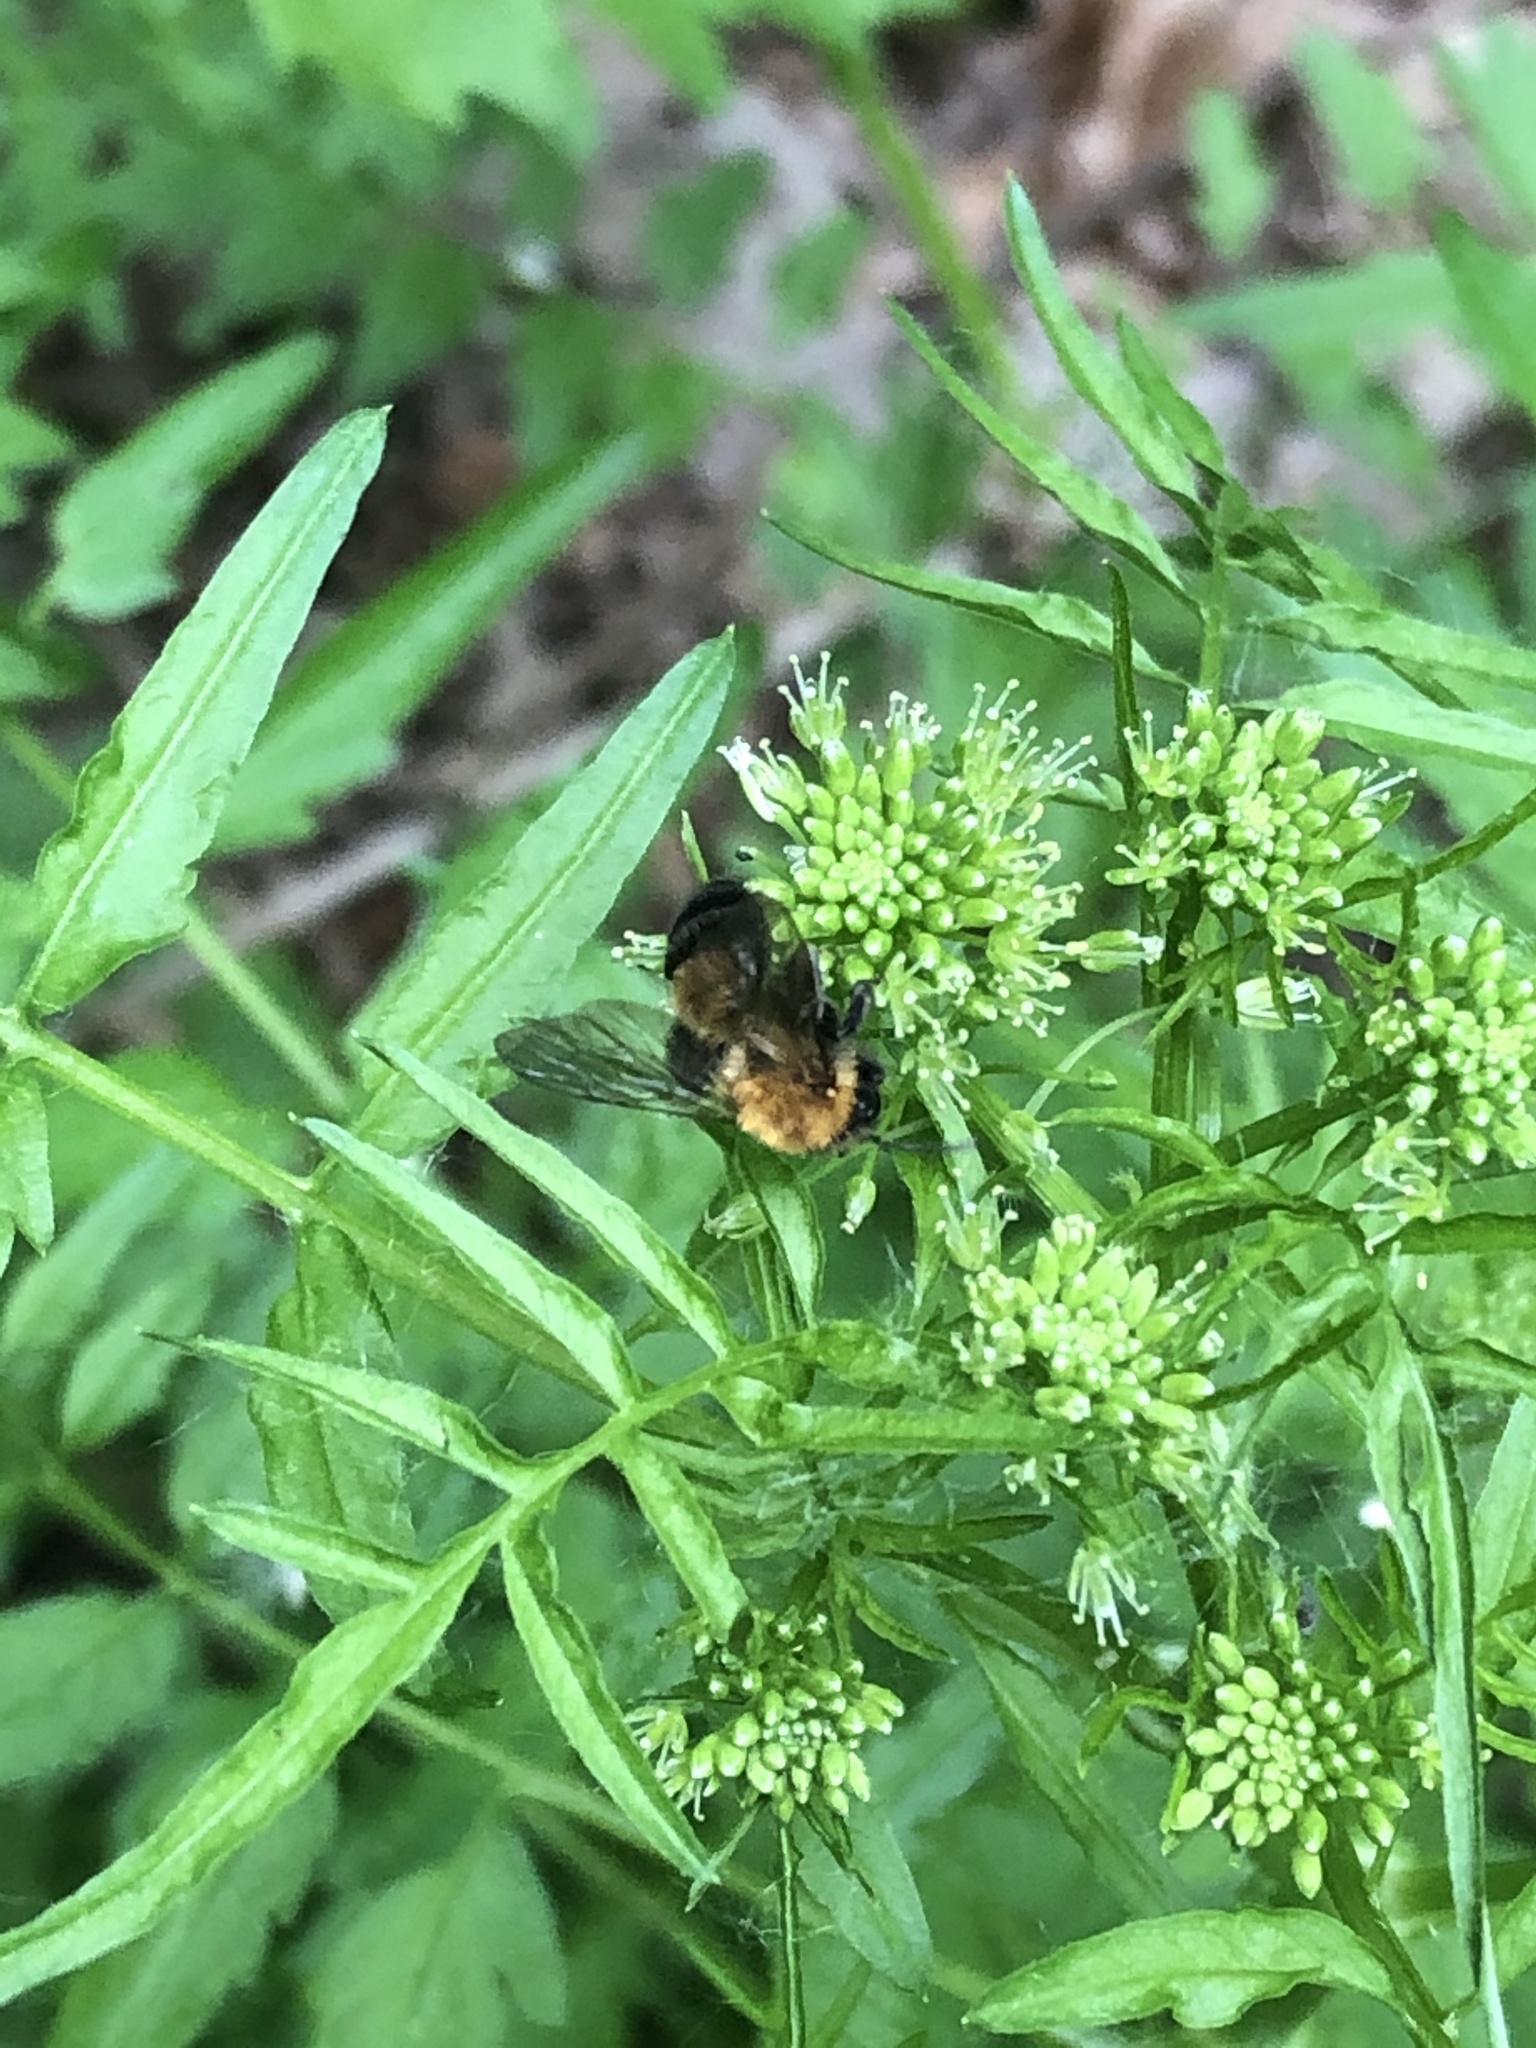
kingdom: Animalia
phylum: Arthropoda
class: Insecta
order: Hymenoptera
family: Andrenidae
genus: Andrena
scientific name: Andrena milwaukeensis
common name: Milwaukee mining bee
